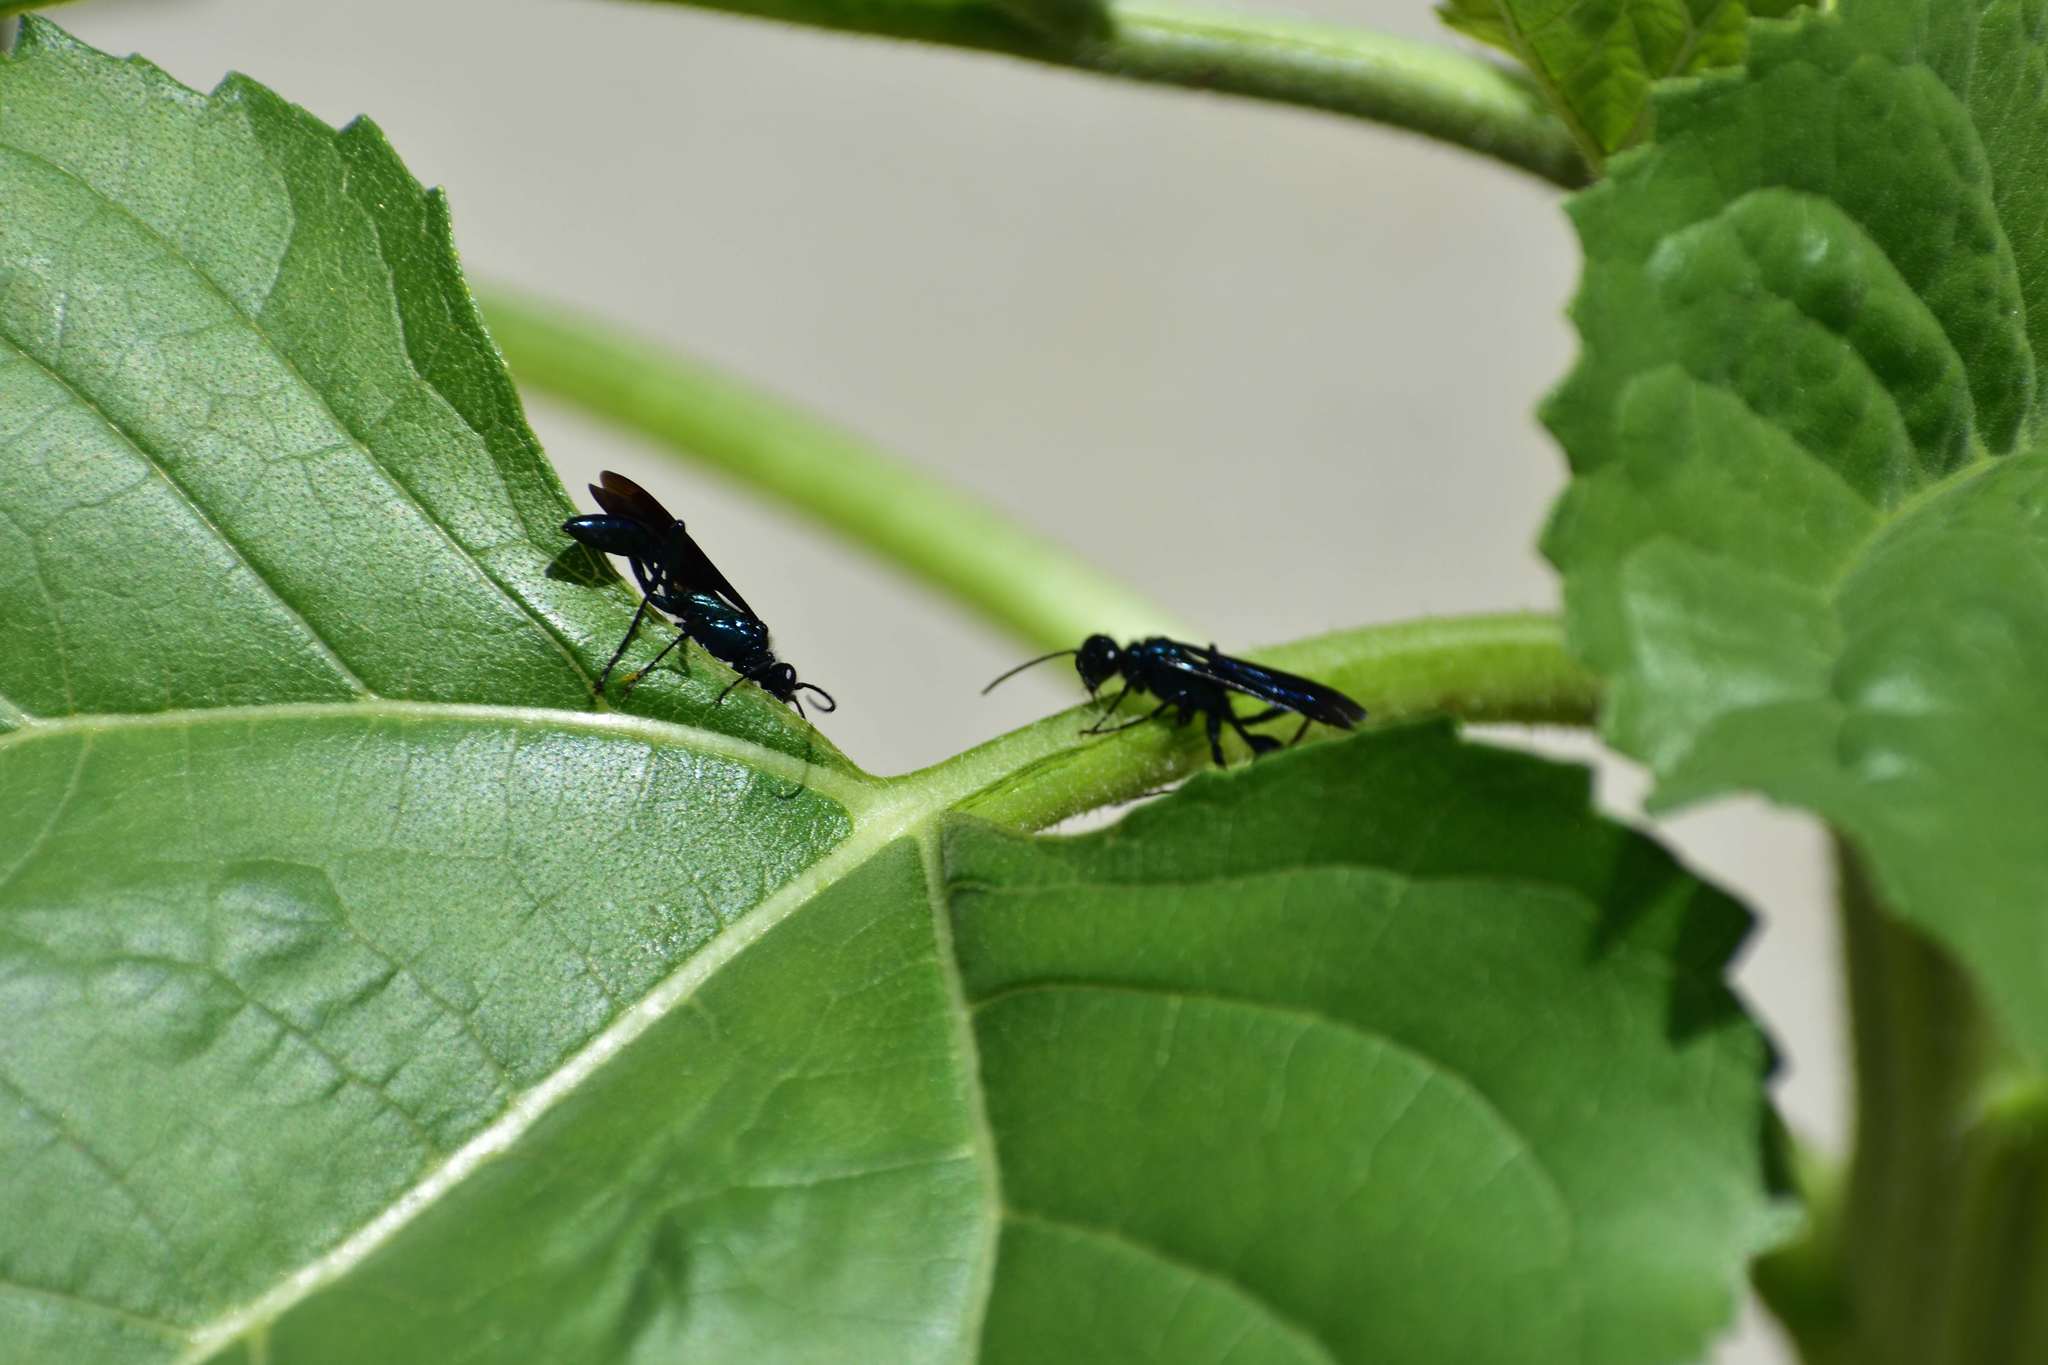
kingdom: Animalia
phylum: Arthropoda
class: Insecta
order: Hymenoptera
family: Sphecidae
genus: Chalybion
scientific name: Chalybion californicum
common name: Mud dauber
